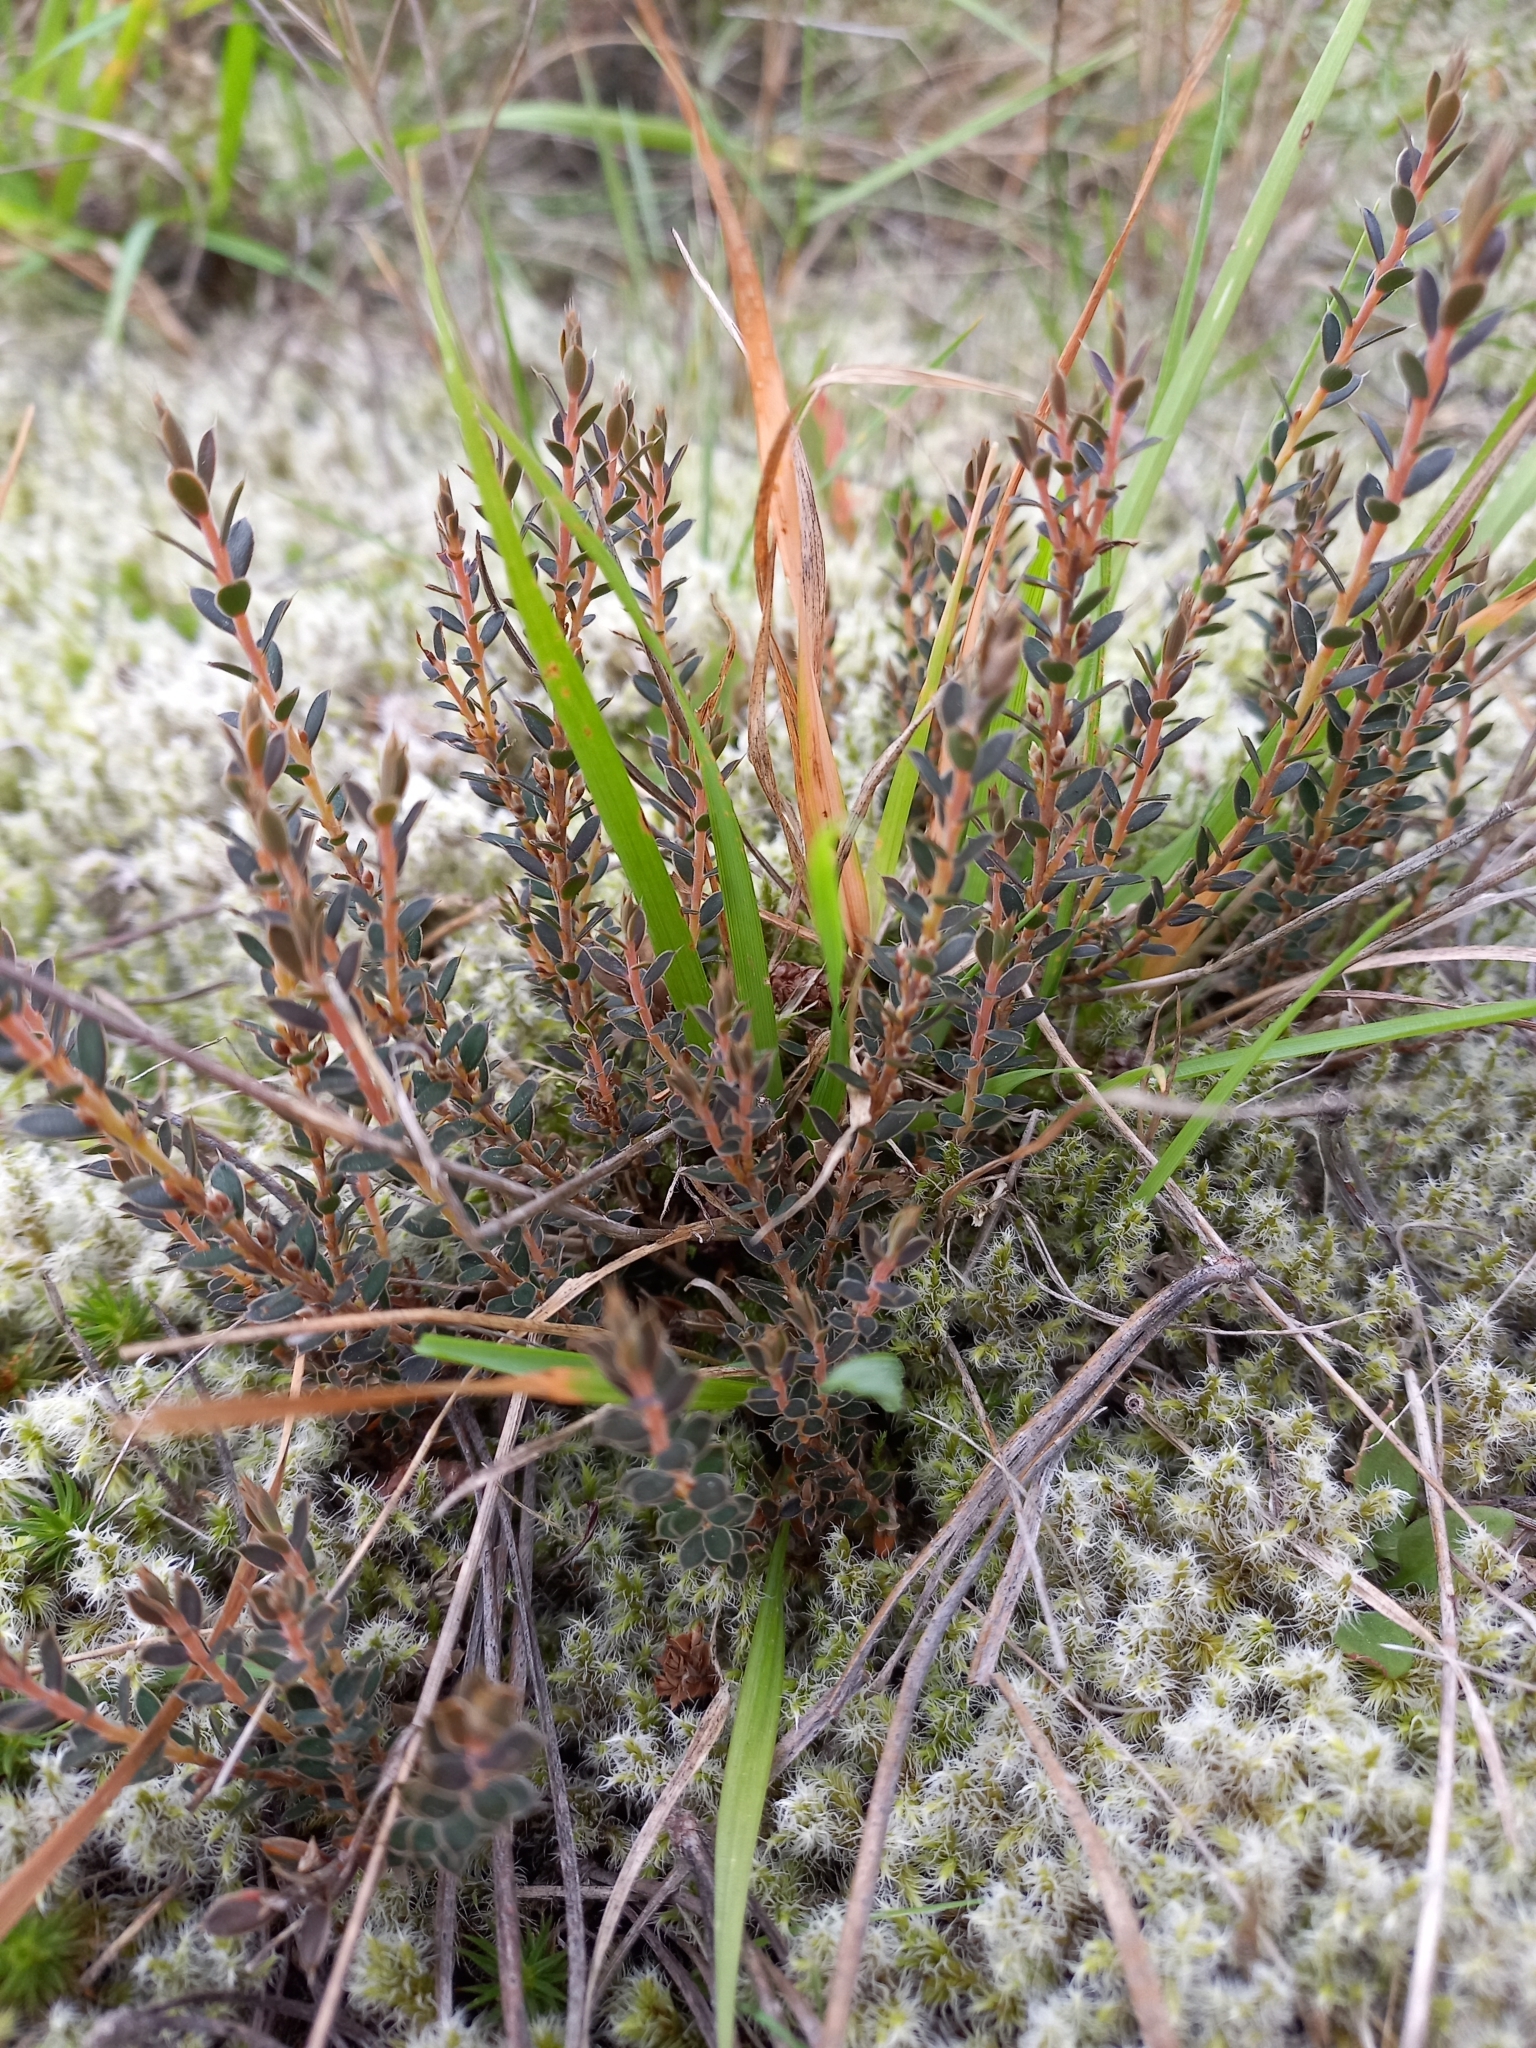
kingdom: Plantae
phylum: Tracheophyta
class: Magnoliopsida
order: Ericales
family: Ericaceae
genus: Styphelia
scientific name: Styphelia nesophila
